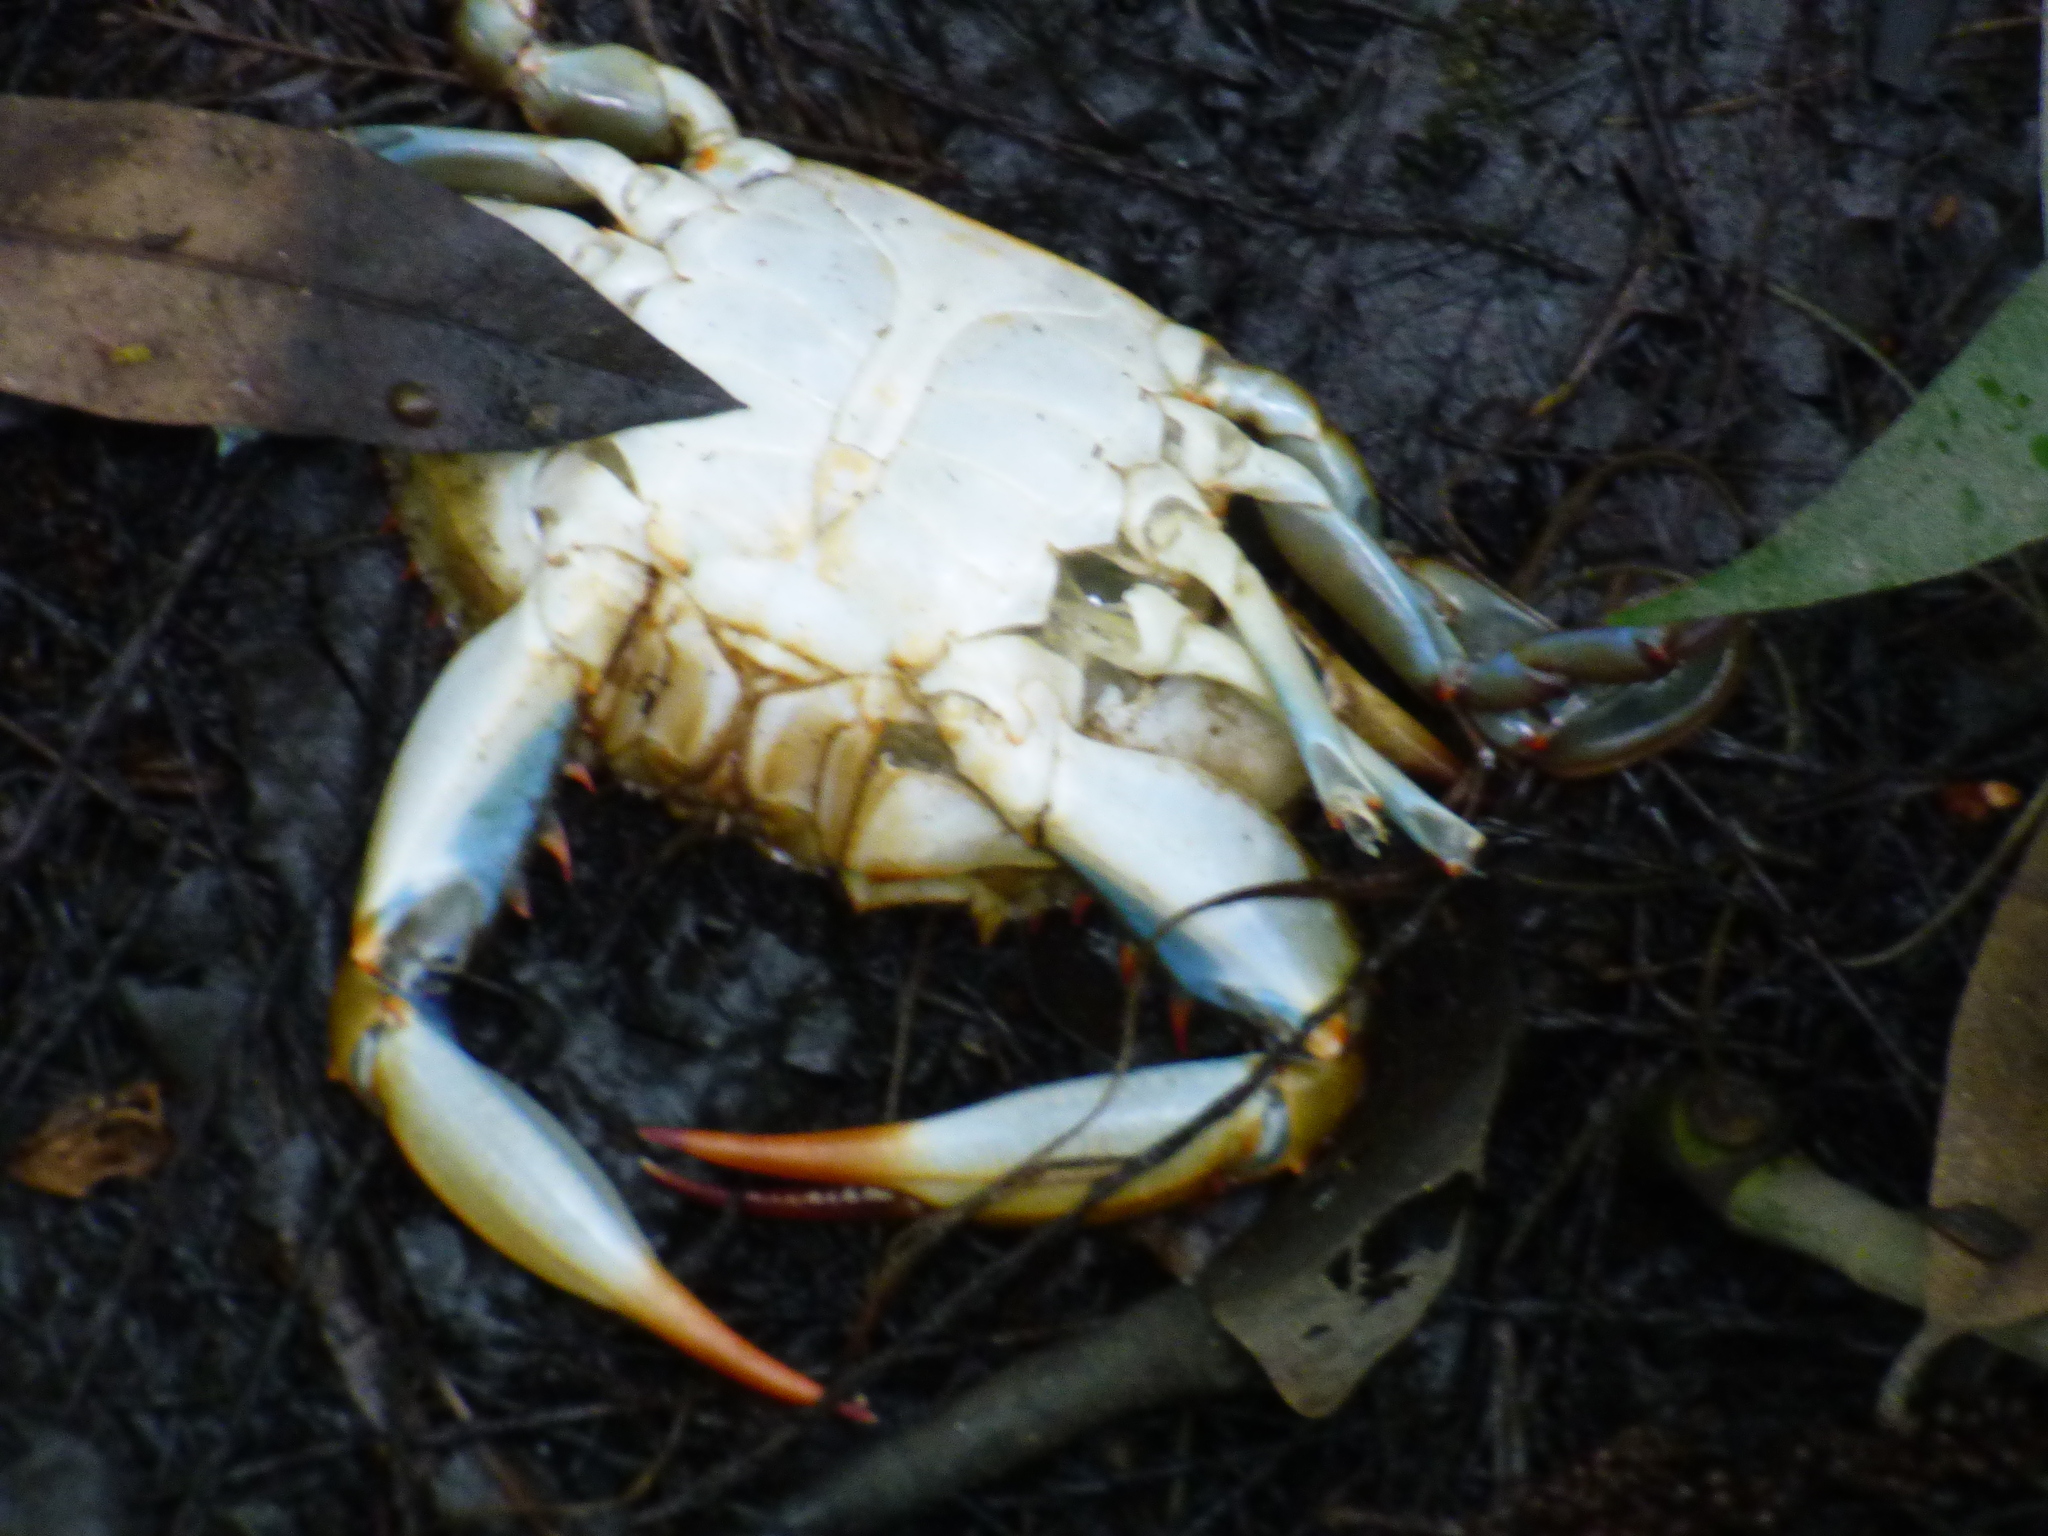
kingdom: Animalia
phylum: Arthropoda
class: Malacostraca
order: Decapoda
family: Portunidae
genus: Callinectes
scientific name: Callinectes sapidus
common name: Blue crab
